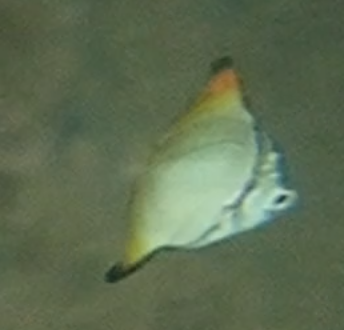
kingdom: Animalia
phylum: Chordata
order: Perciformes
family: Monodactylidae
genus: Monodactylus
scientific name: Monodactylus argenteus
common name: Silver moony
